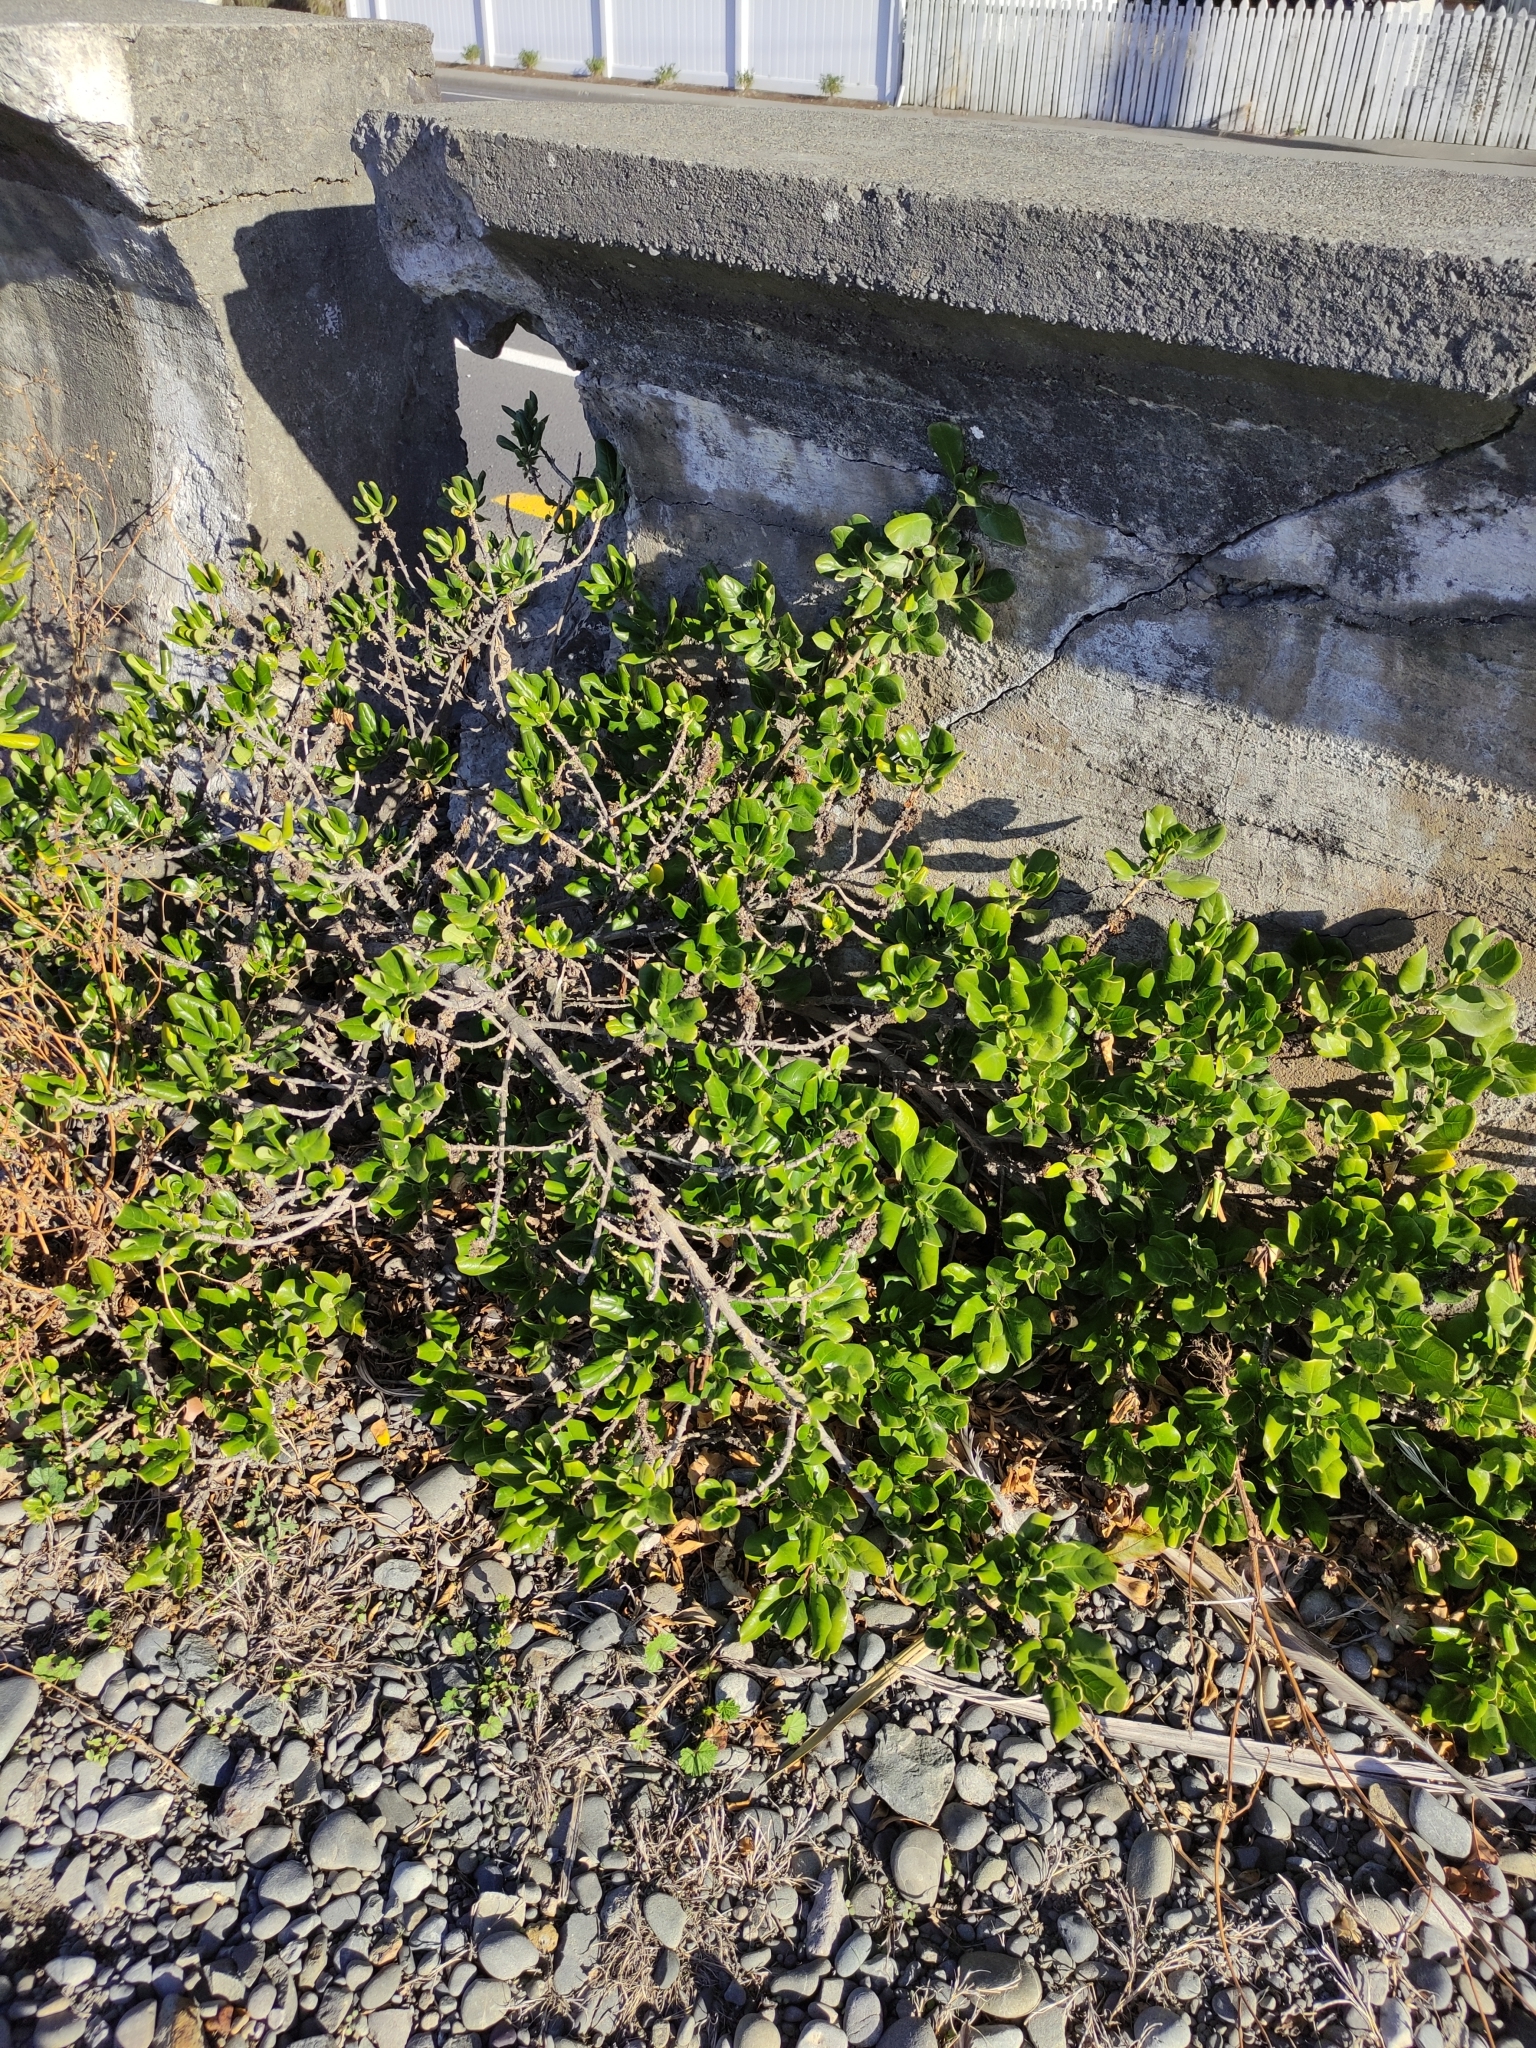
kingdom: Plantae
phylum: Tracheophyta
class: Magnoliopsida
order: Gentianales
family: Rubiaceae
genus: Coprosma
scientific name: Coprosma repens
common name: Tree bedstraw
